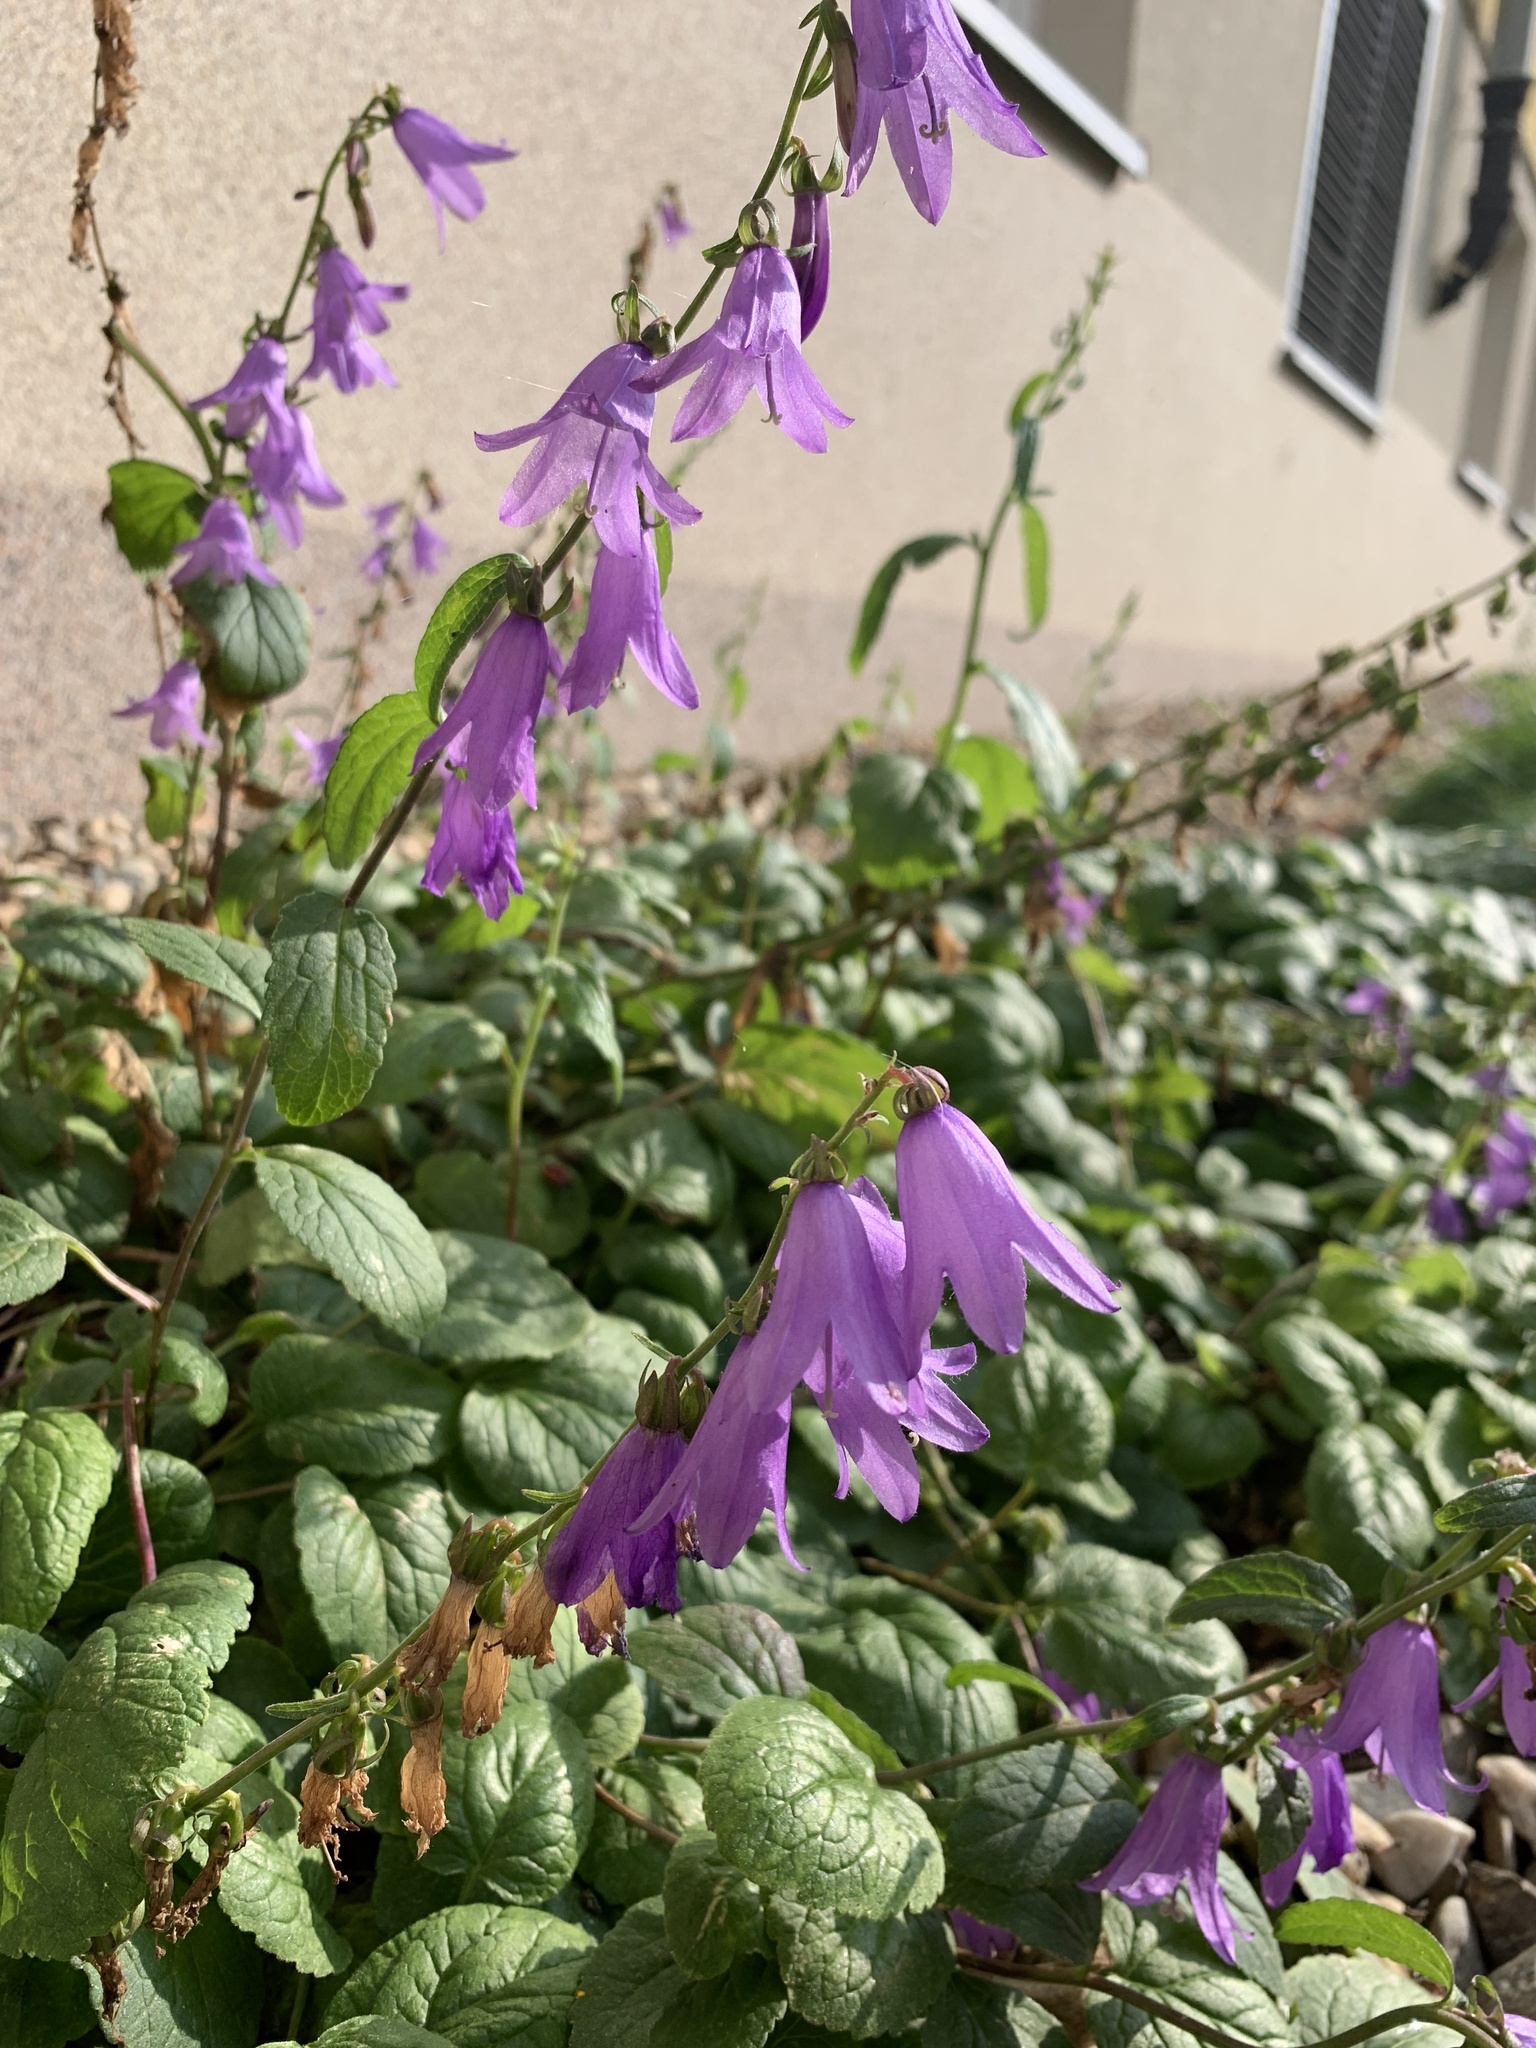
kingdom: Plantae
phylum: Tracheophyta
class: Magnoliopsida
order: Asterales
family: Campanulaceae
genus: Campanula
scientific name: Campanula rapunculoides
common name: Creeping bellflower
